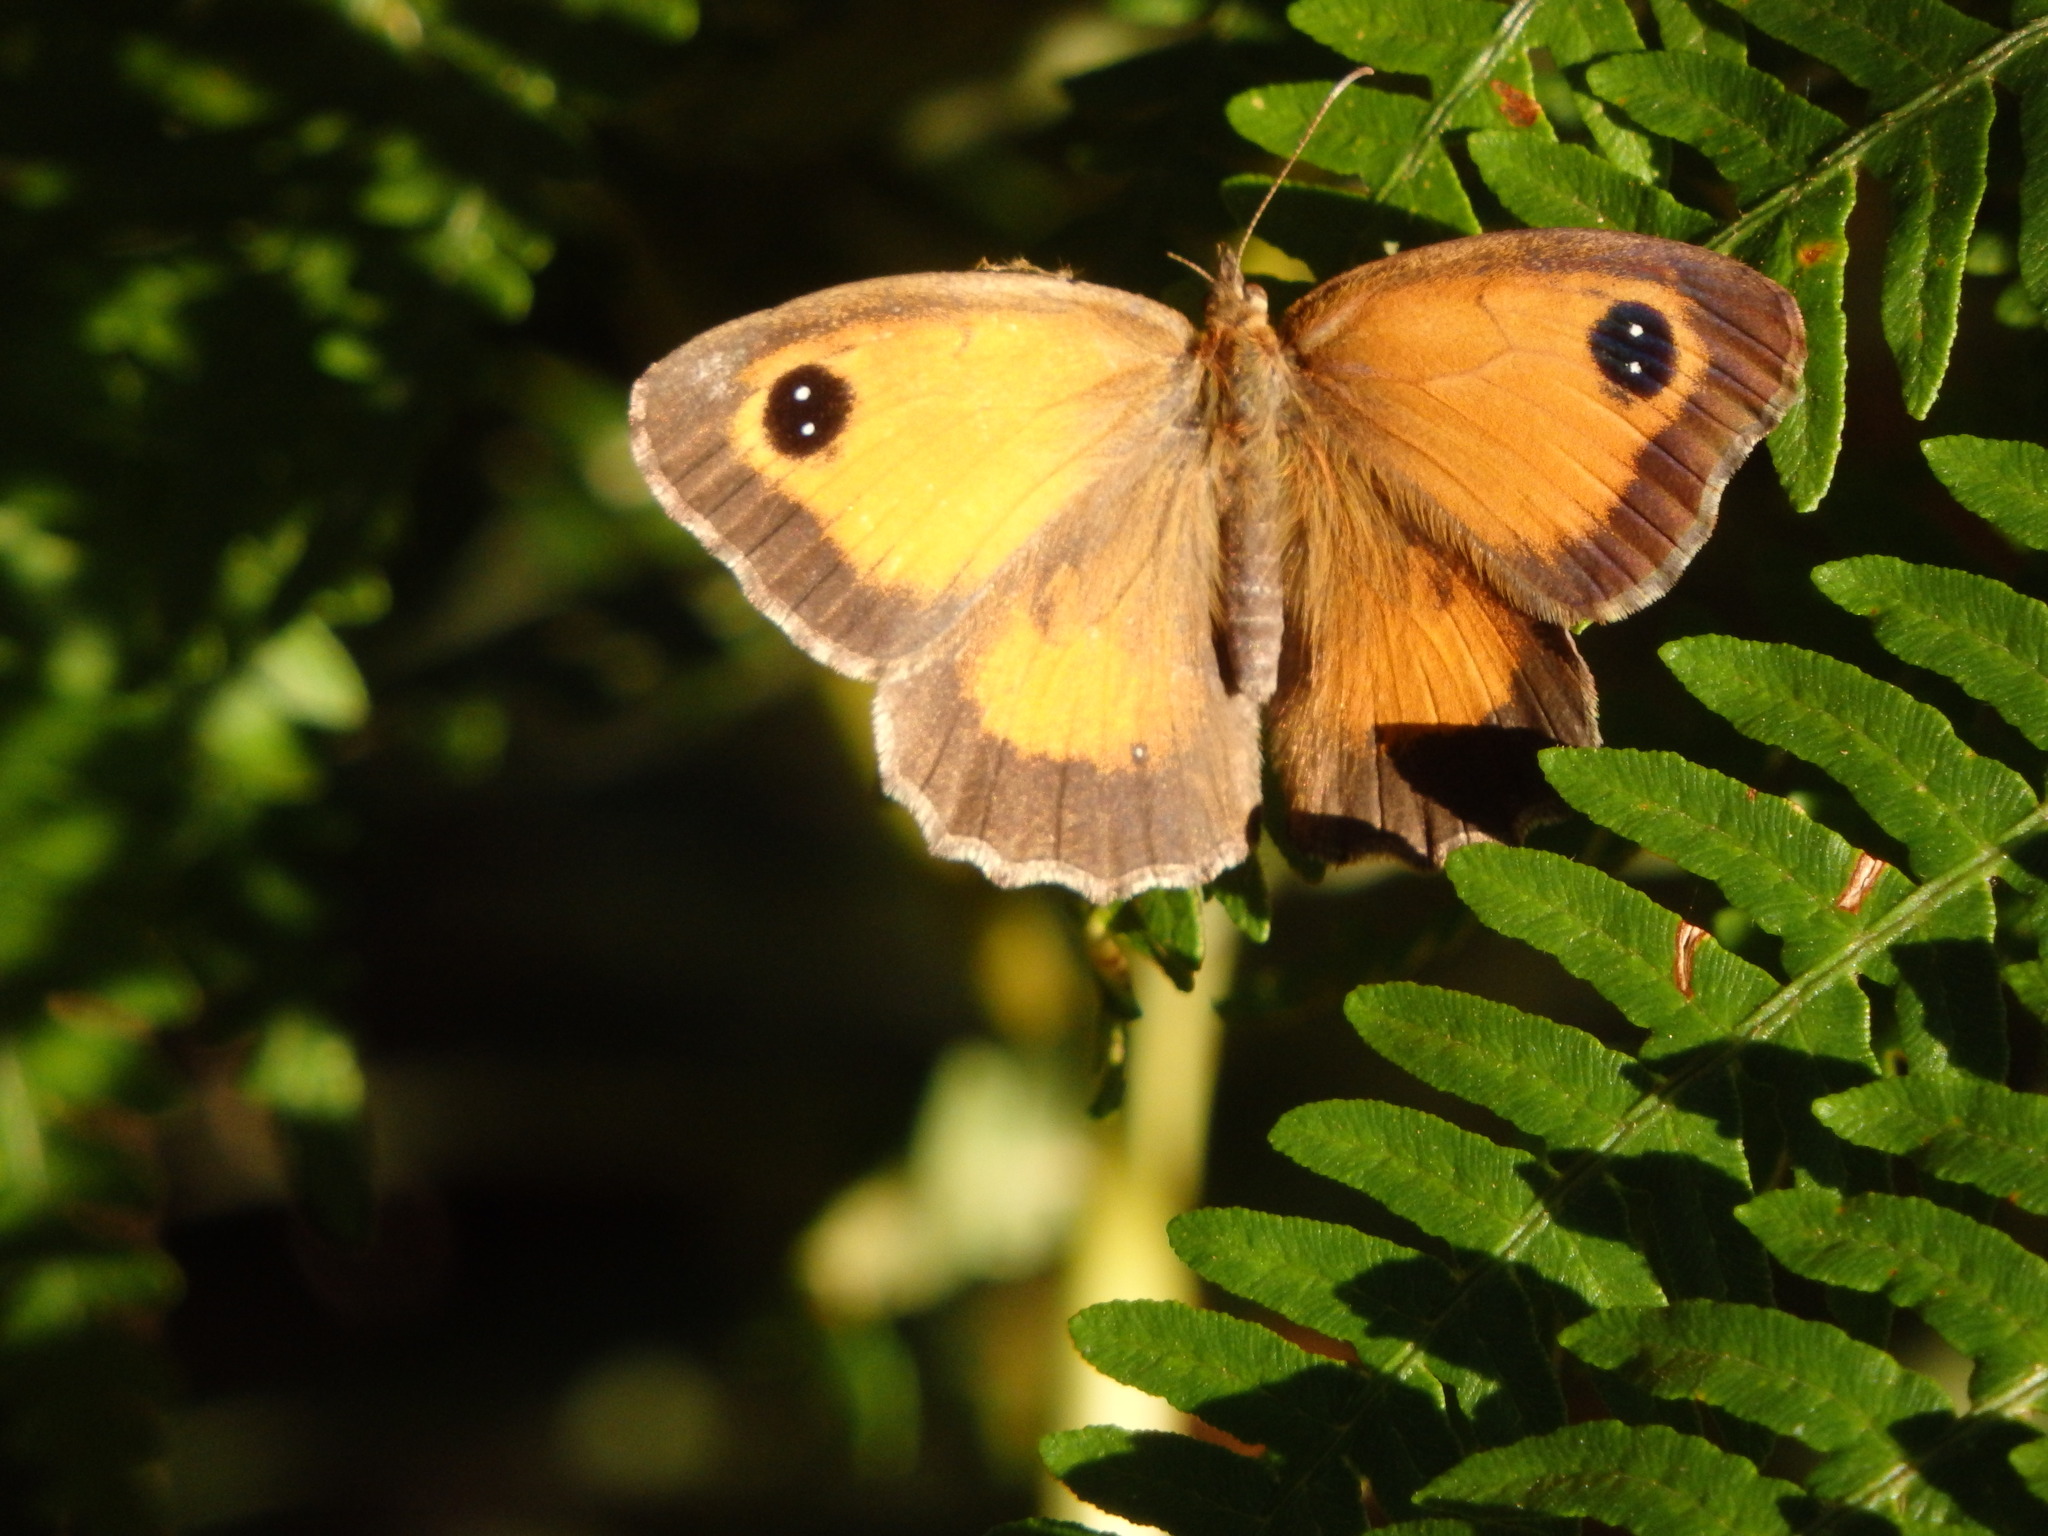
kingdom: Animalia
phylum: Arthropoda
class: Insecta
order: Lepidoptera
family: Nymphalidae
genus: Pyronia
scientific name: Pyronia tithonus
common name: Gatekeeper
